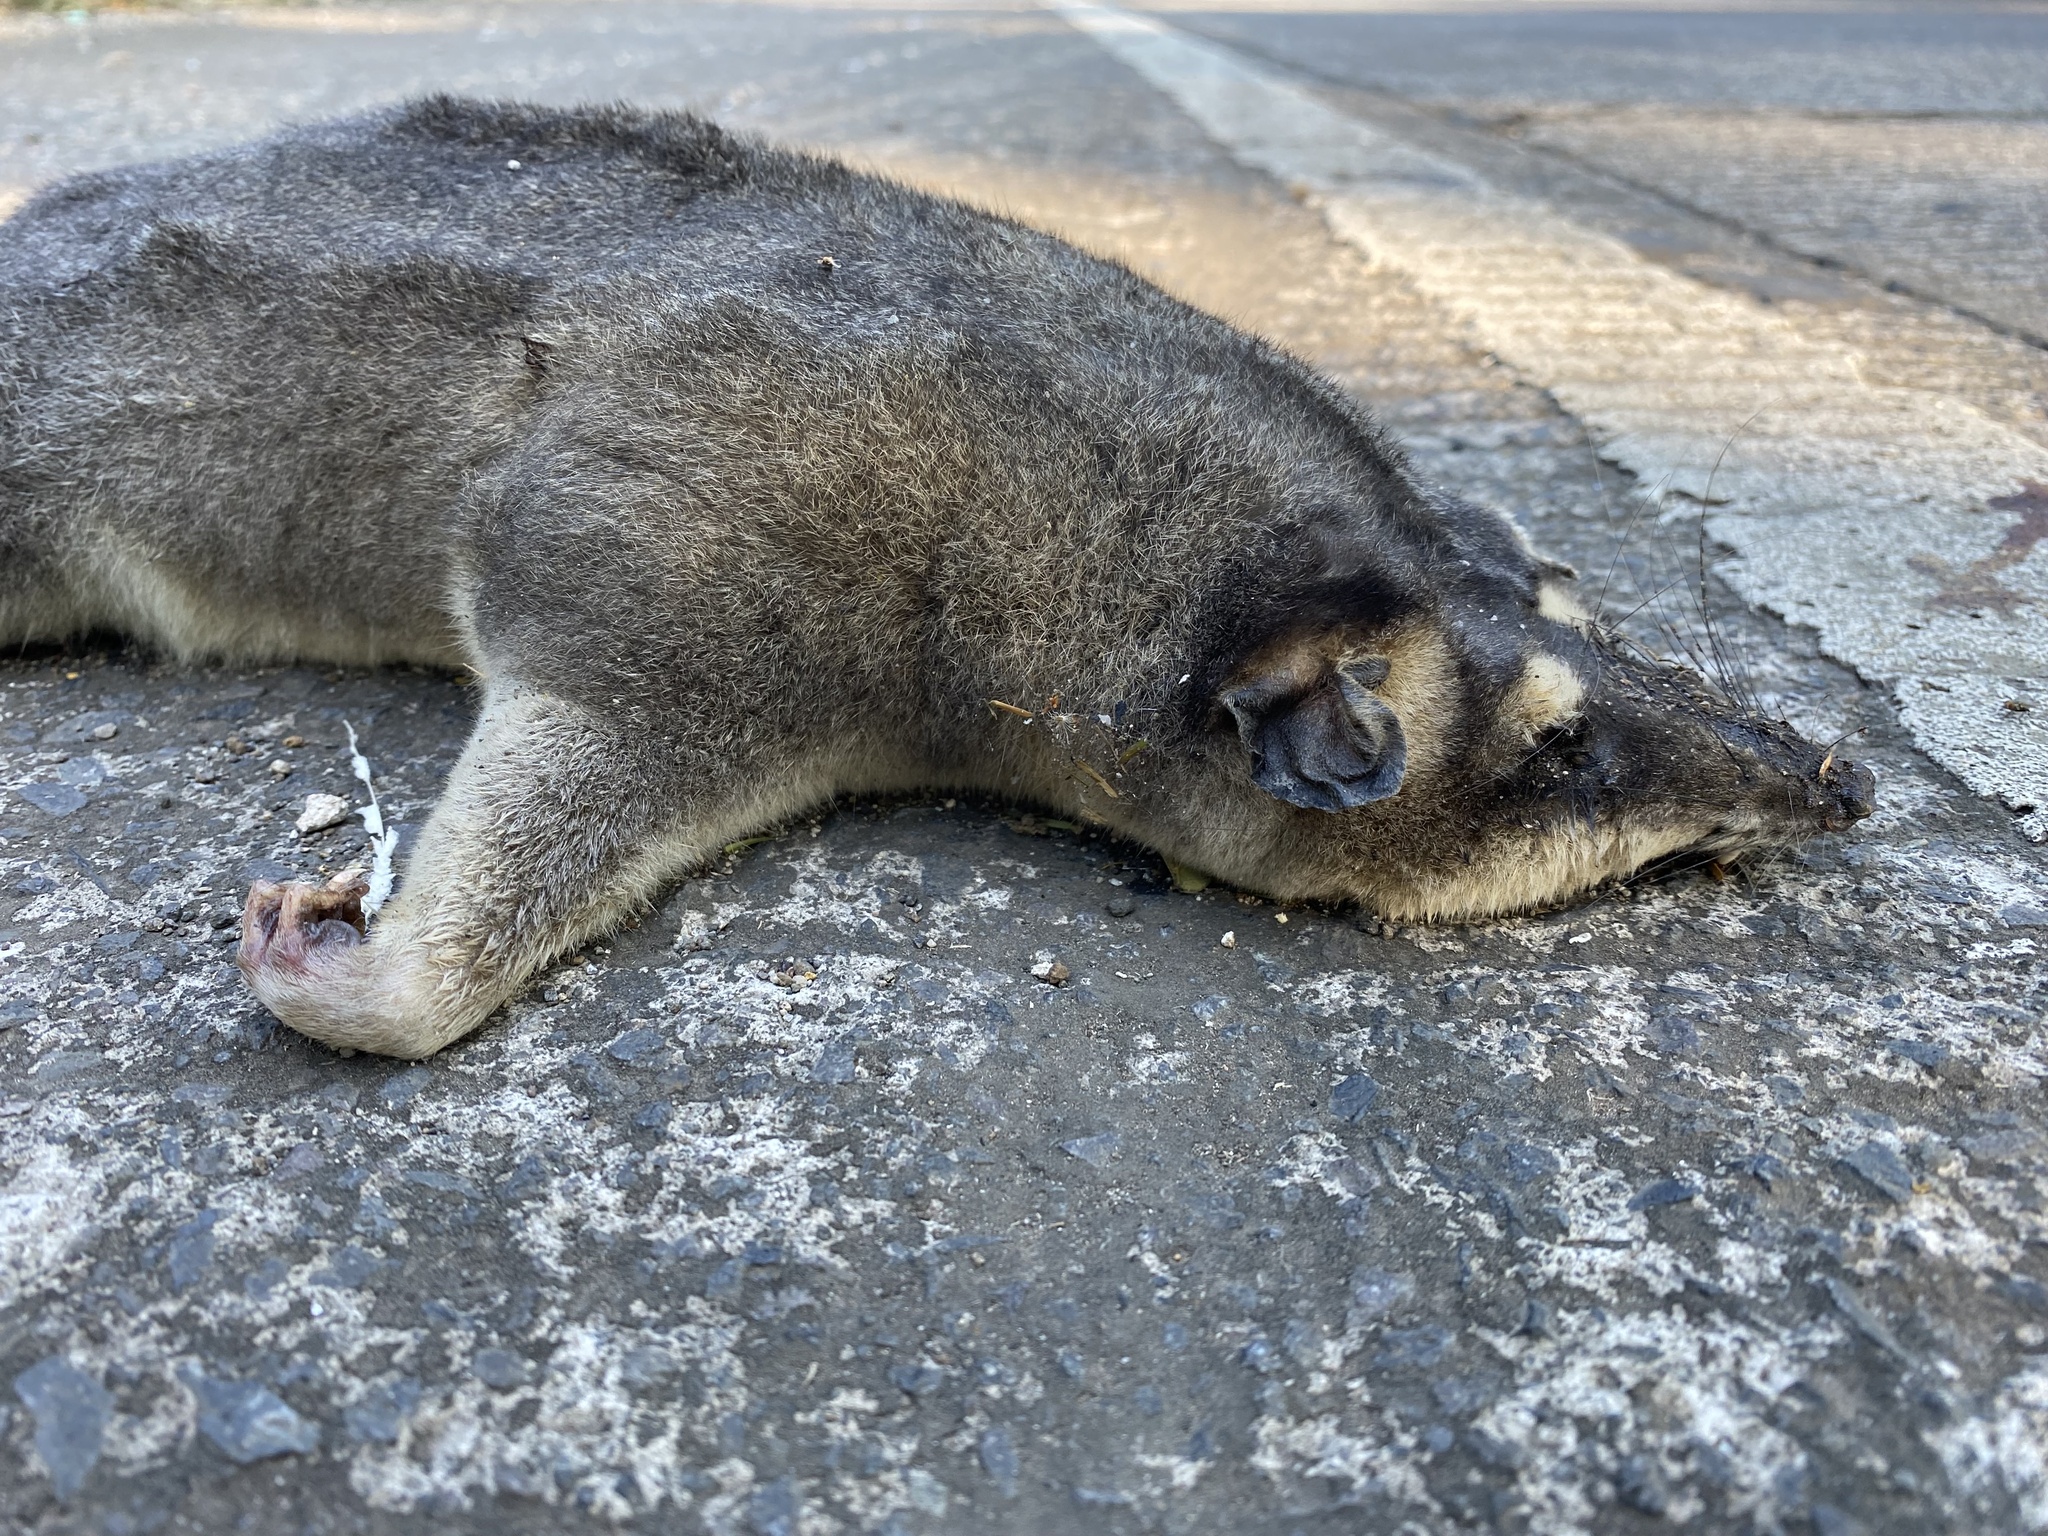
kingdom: Animalia
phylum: Chordata
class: Mammalia
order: Didelphimorphia
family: Didelphidae
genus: Philander
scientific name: Philander
